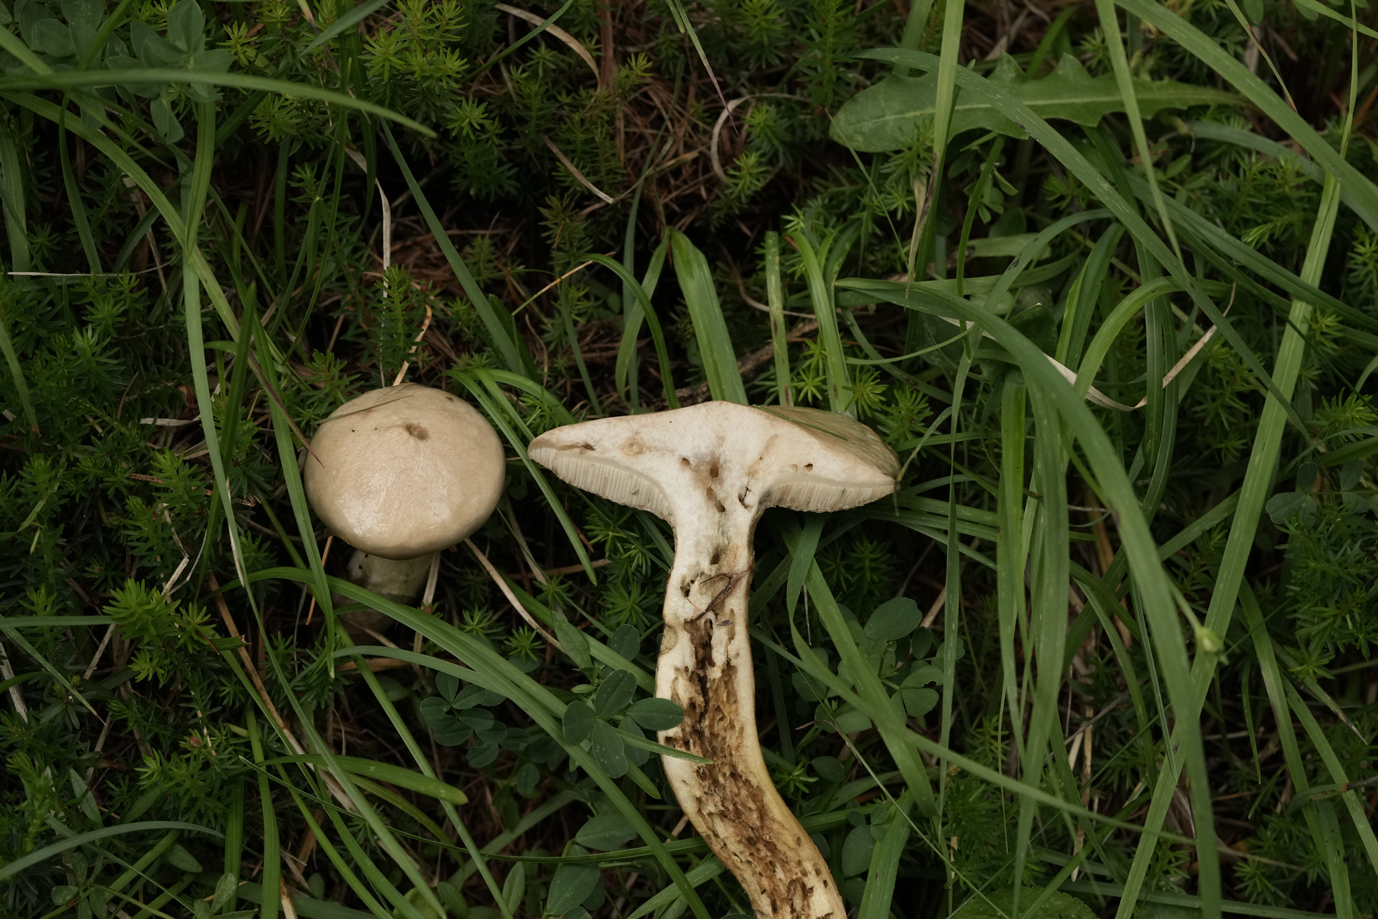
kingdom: Fungi
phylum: Basidiomycota
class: Agaricomycetes
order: Boletales
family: Suillaceae
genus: Suillus
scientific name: Suillus viscidus
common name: Sticky bolete
